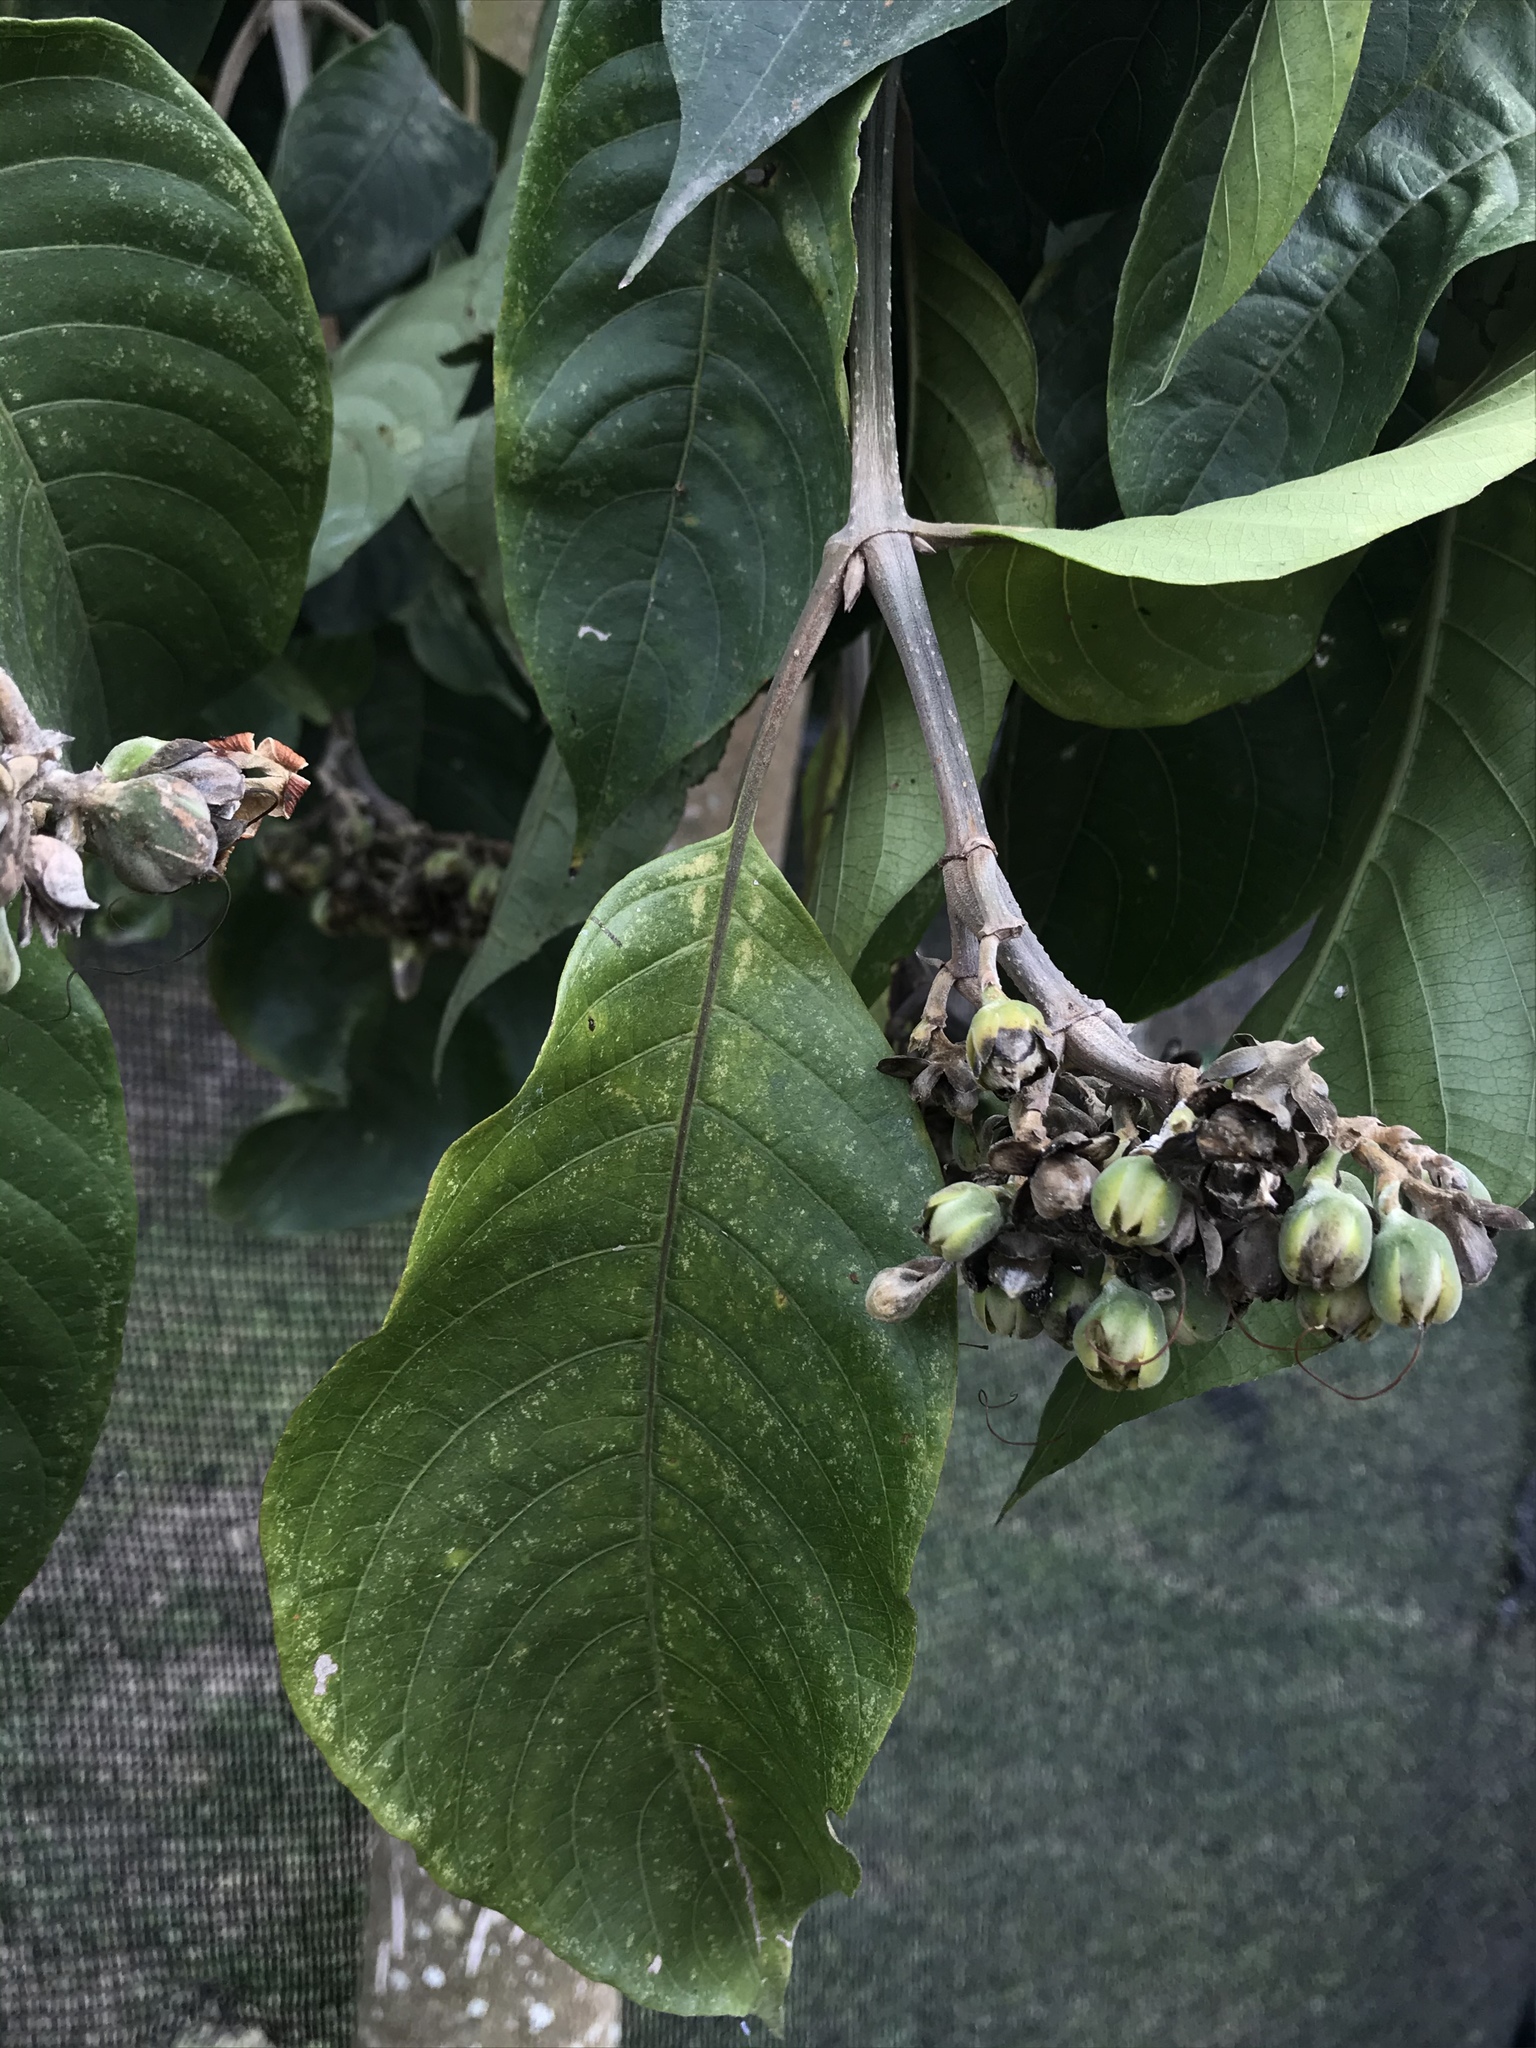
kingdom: Plantae
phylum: Tracheophyta
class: Magnoliopsida
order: Lamiales
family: Acanthaceae
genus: Trichanthera
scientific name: Trichanthera gigantea
